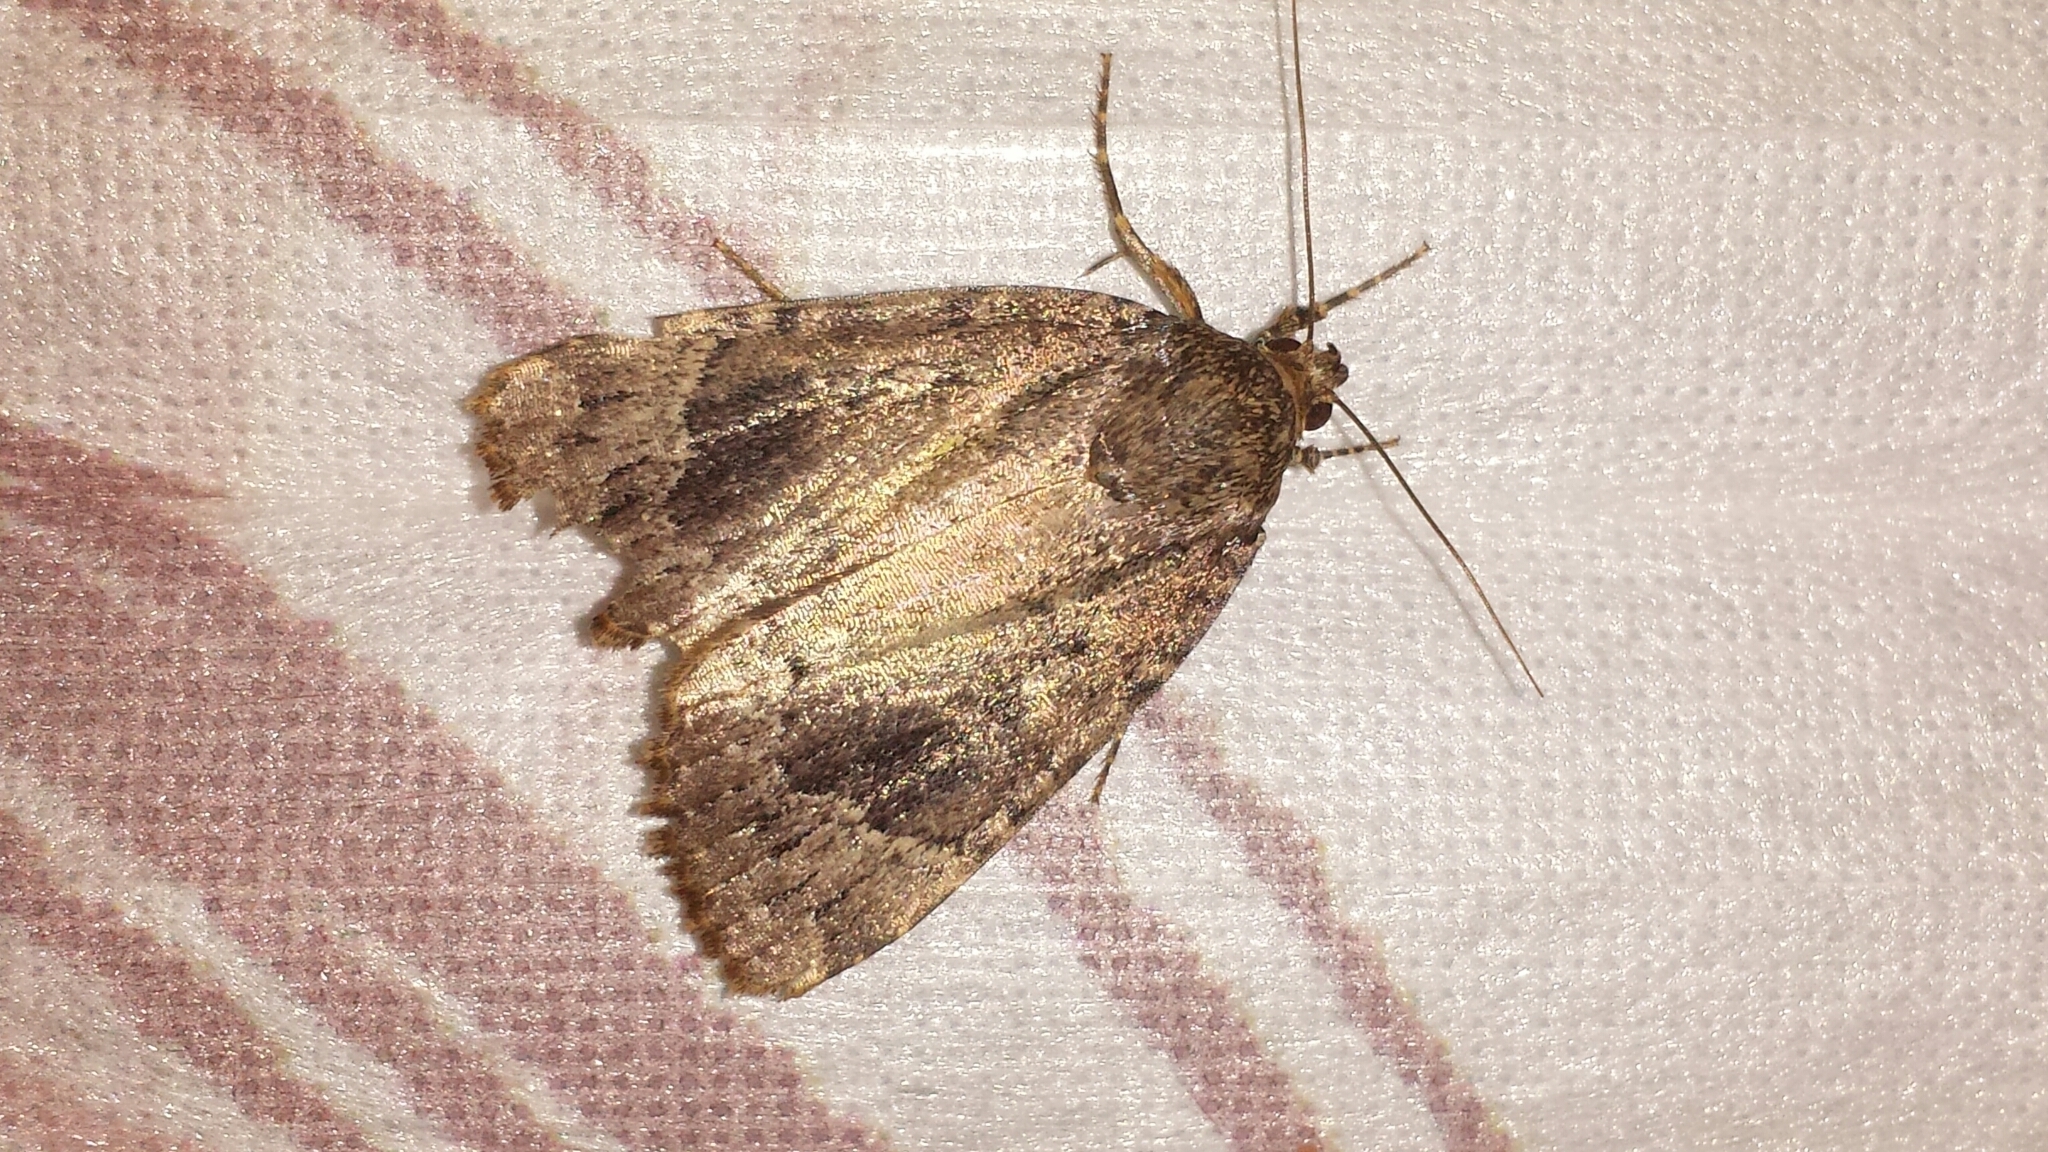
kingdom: Animalia
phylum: Arthropoda
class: Insecta
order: Lepidoptera
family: Noctuidae
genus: Amphipyra
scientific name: Amphipyra pyramidoides
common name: American copper underwing
